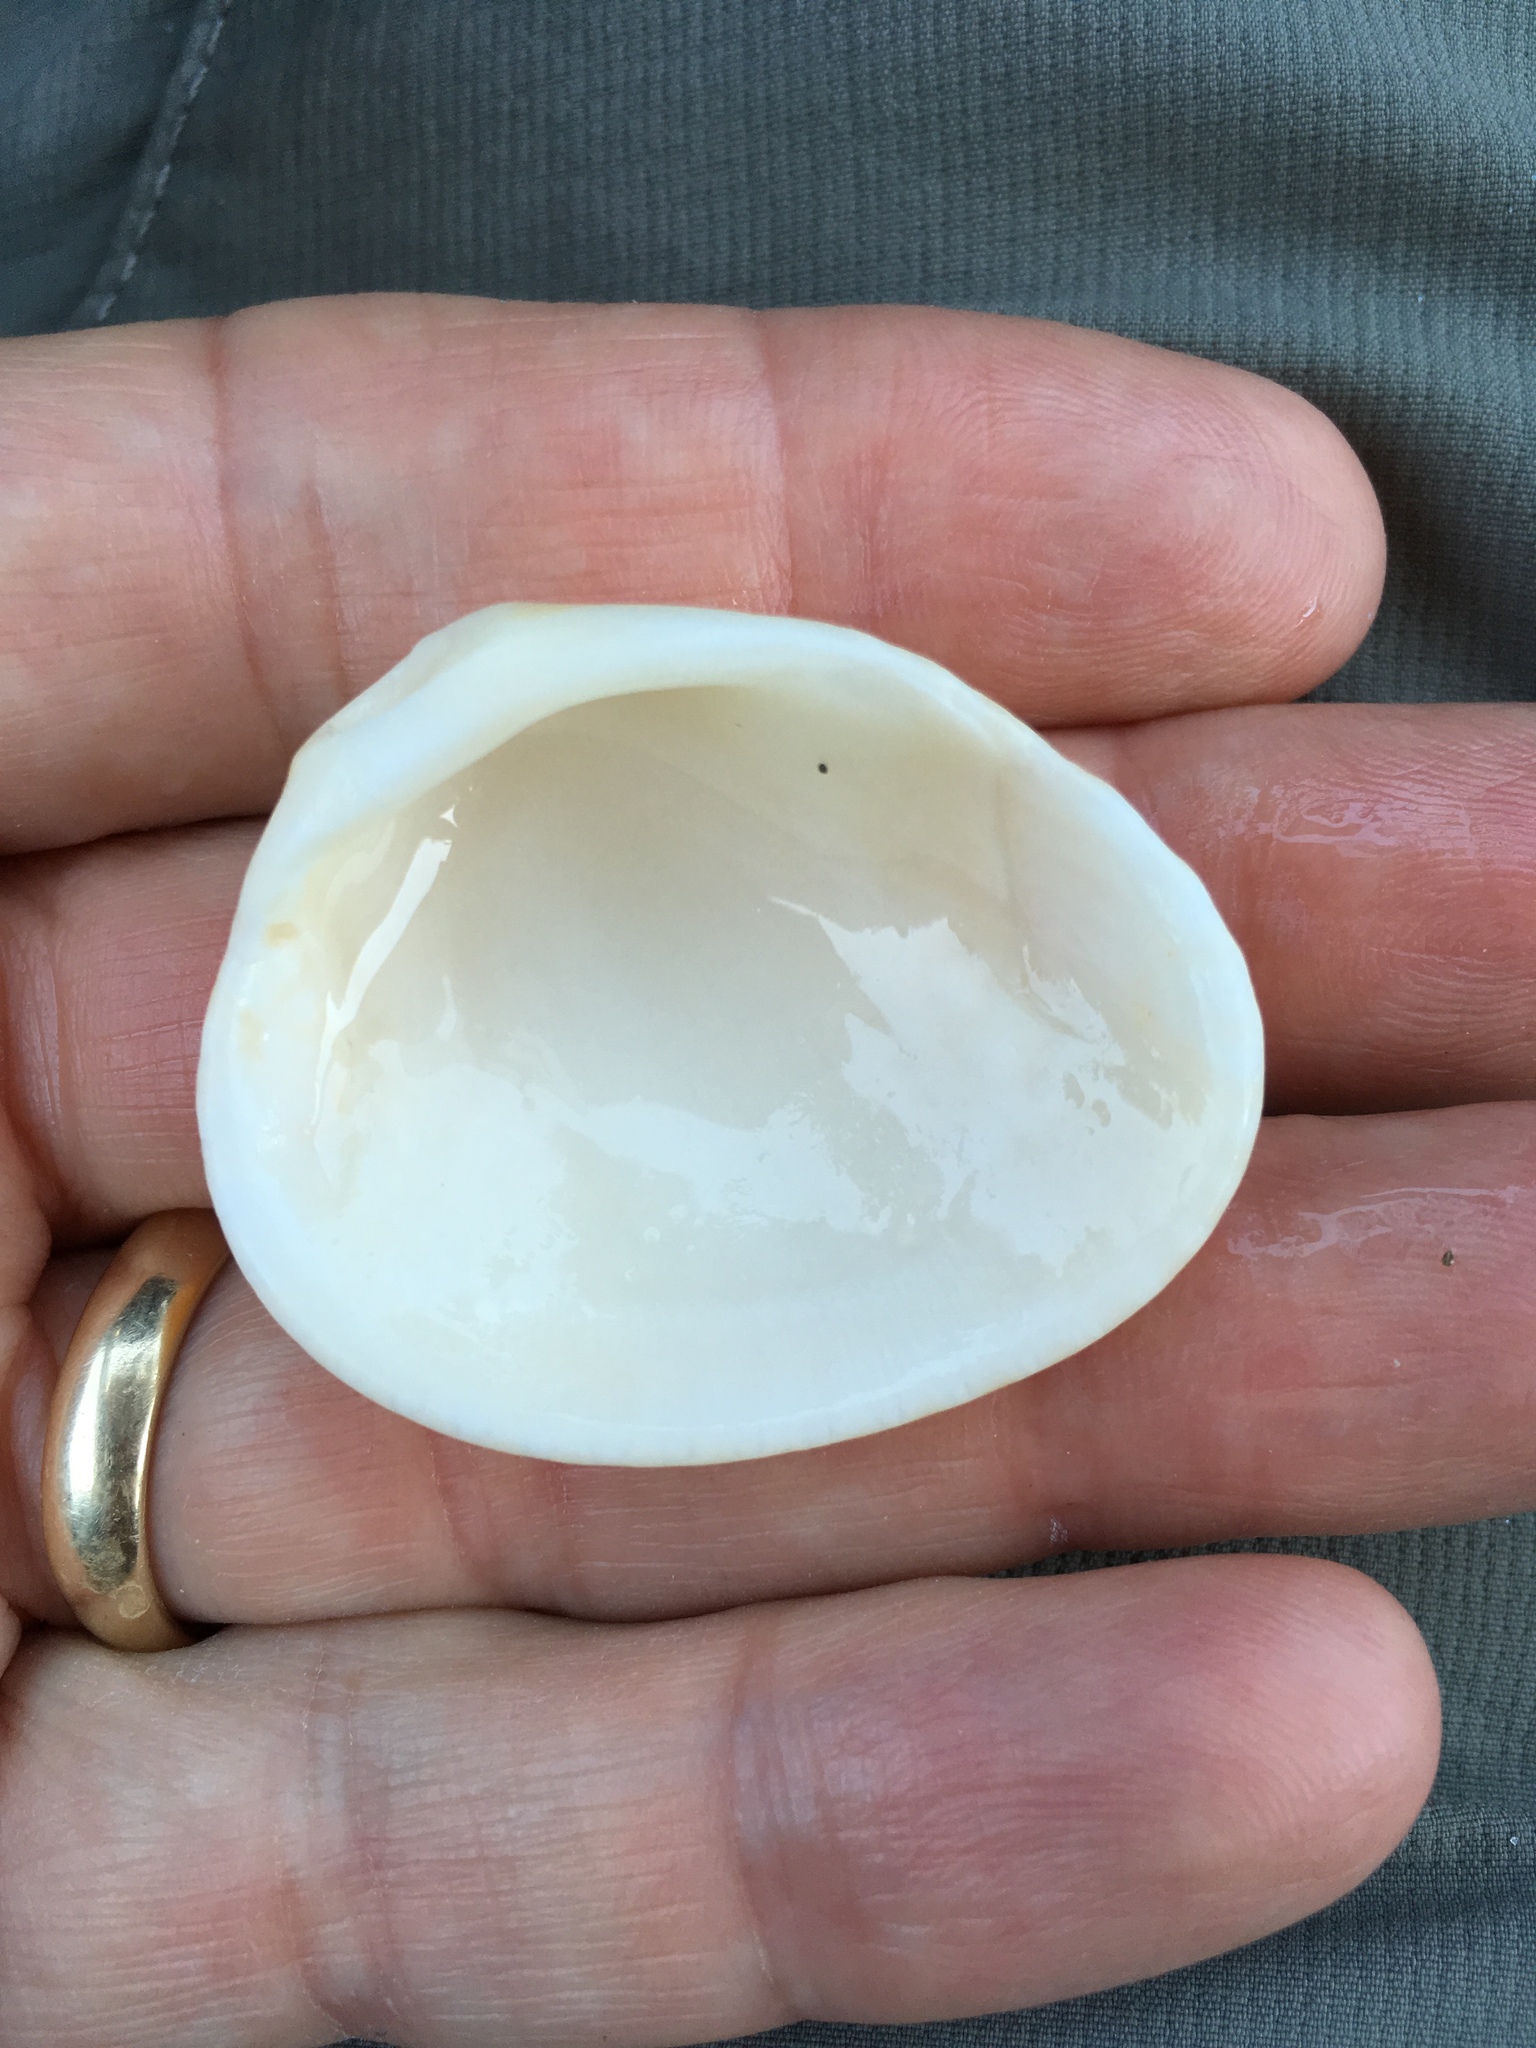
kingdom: Animalia
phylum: Mollusca
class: Bivalvia
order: Arcida
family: Arcidae
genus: Lunarca
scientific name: Lunarca ovalis
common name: Blood ark
